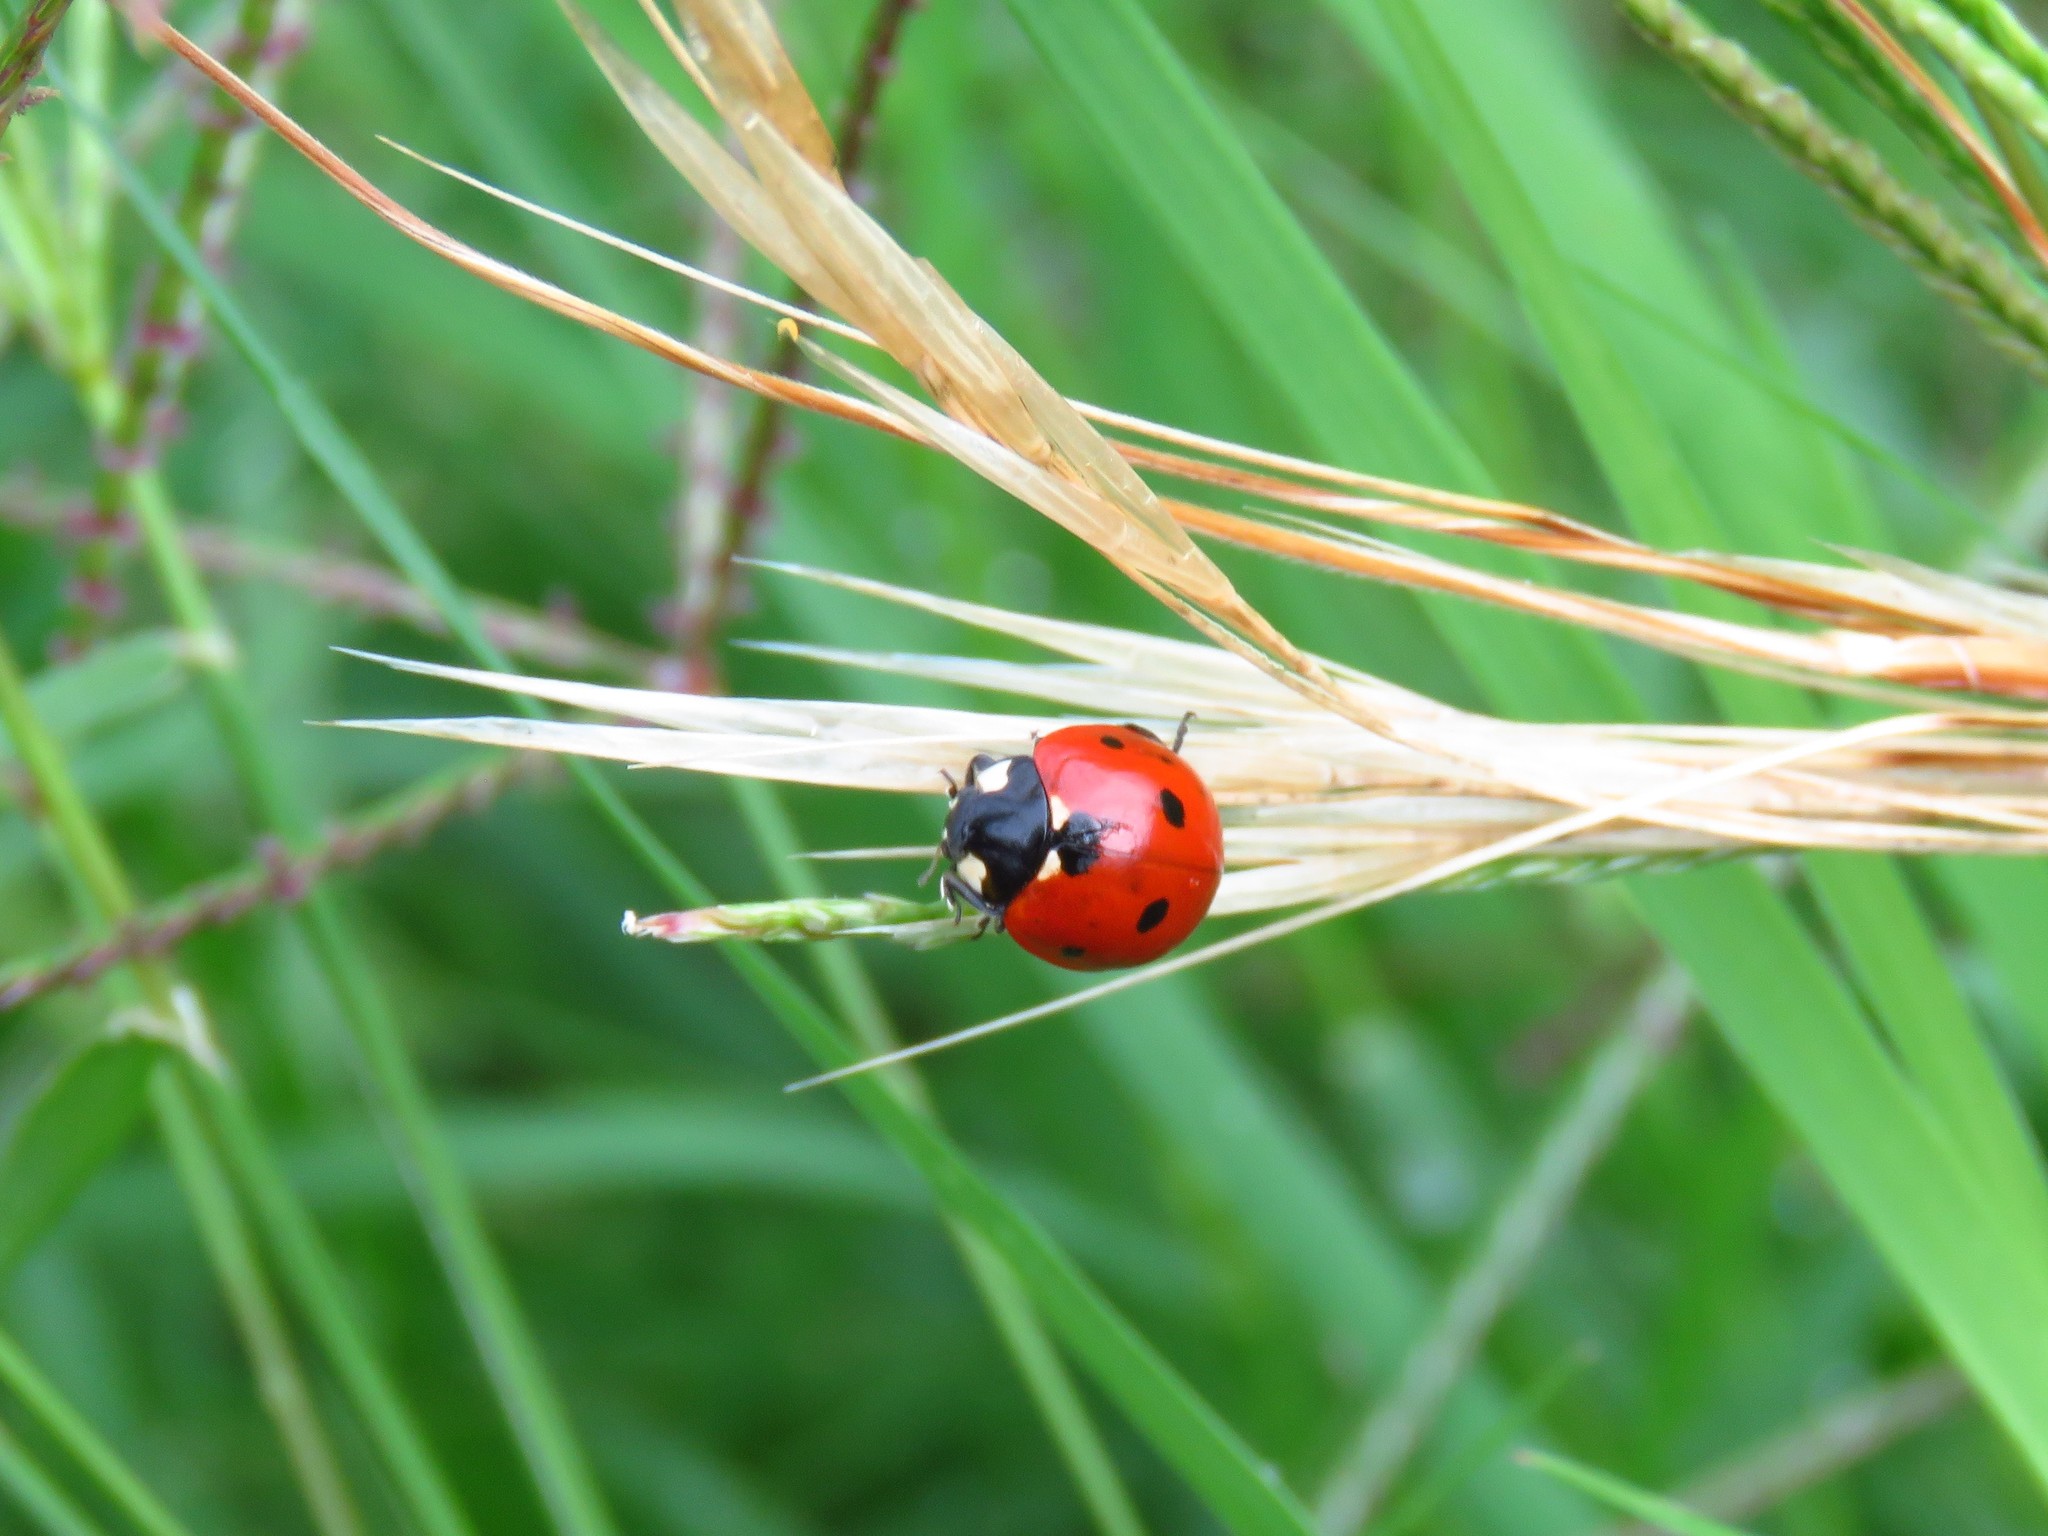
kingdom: Animalia
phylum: Arthropoda
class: Insecta
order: Coleoptera
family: Coccinellidae
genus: Coccinella
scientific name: Coccinella septempunctata
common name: Sevenspotted lady beetle
